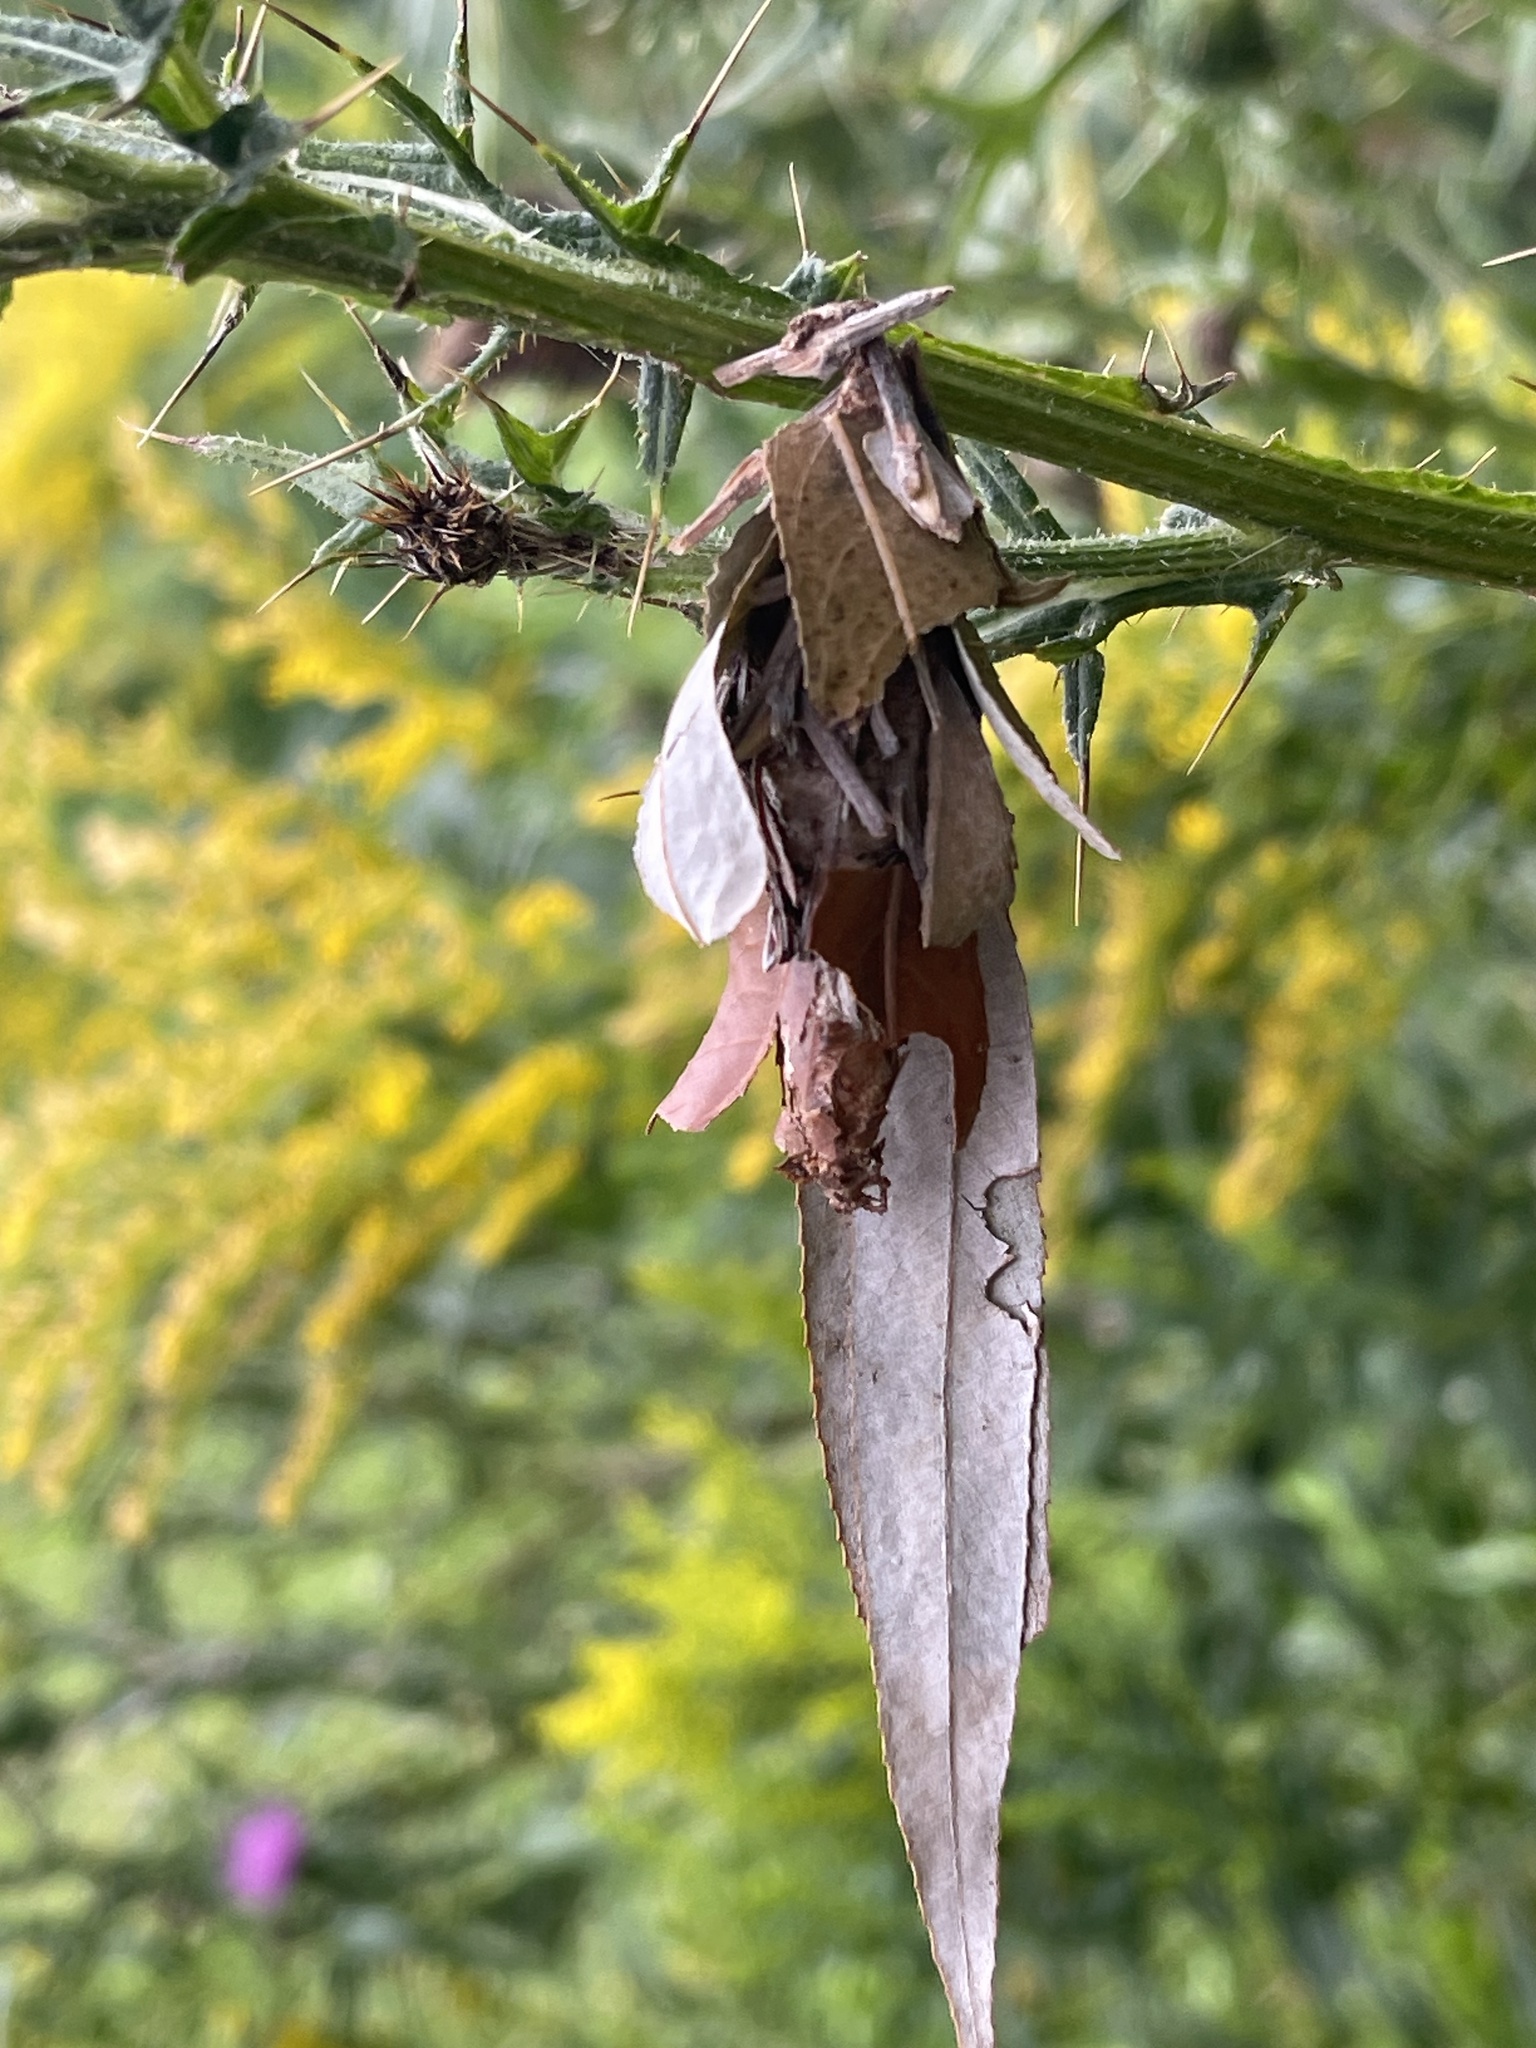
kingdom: Animalia
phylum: Arthropoda
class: Insecta
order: Lepidoptera
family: Psychidae
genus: Thyridopteryx
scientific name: Thyridopteryx ephemeraeformis
